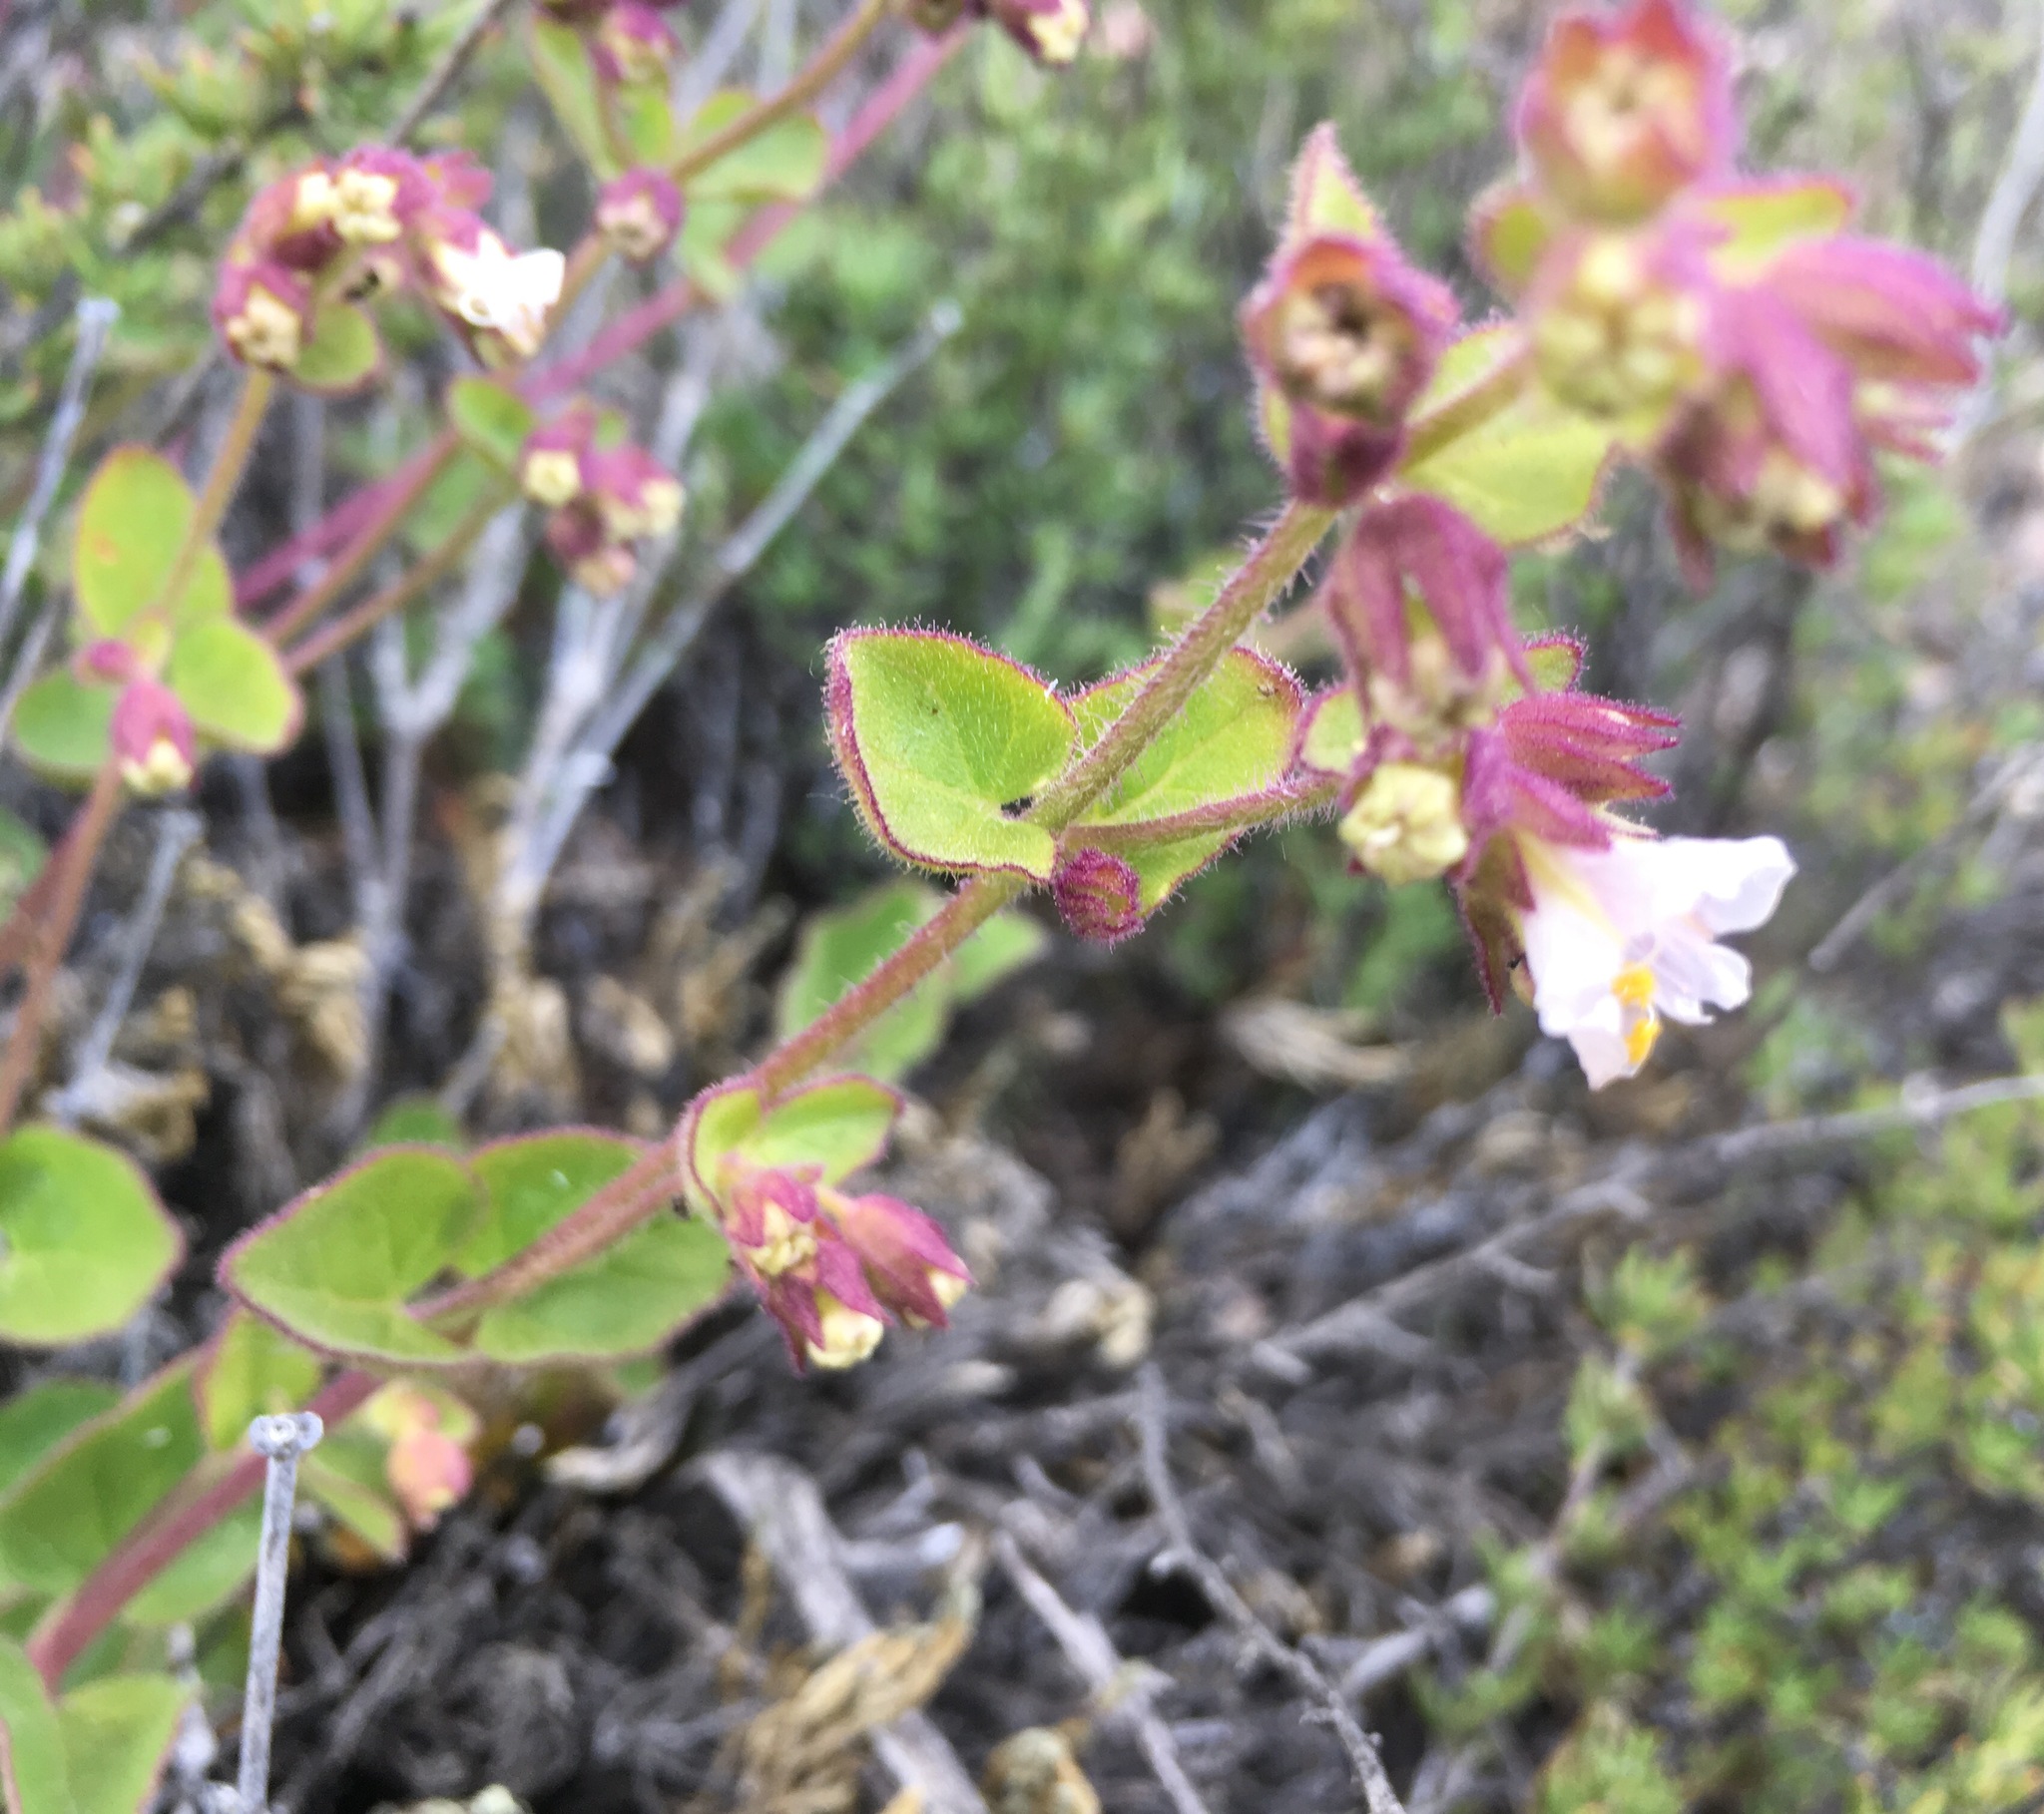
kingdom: Plantae
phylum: Tracheophyta
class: Magnoliopsida
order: Caryophyllales
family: Nyctaginaceae
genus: Mirabilis
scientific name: Mirabilis laevis
